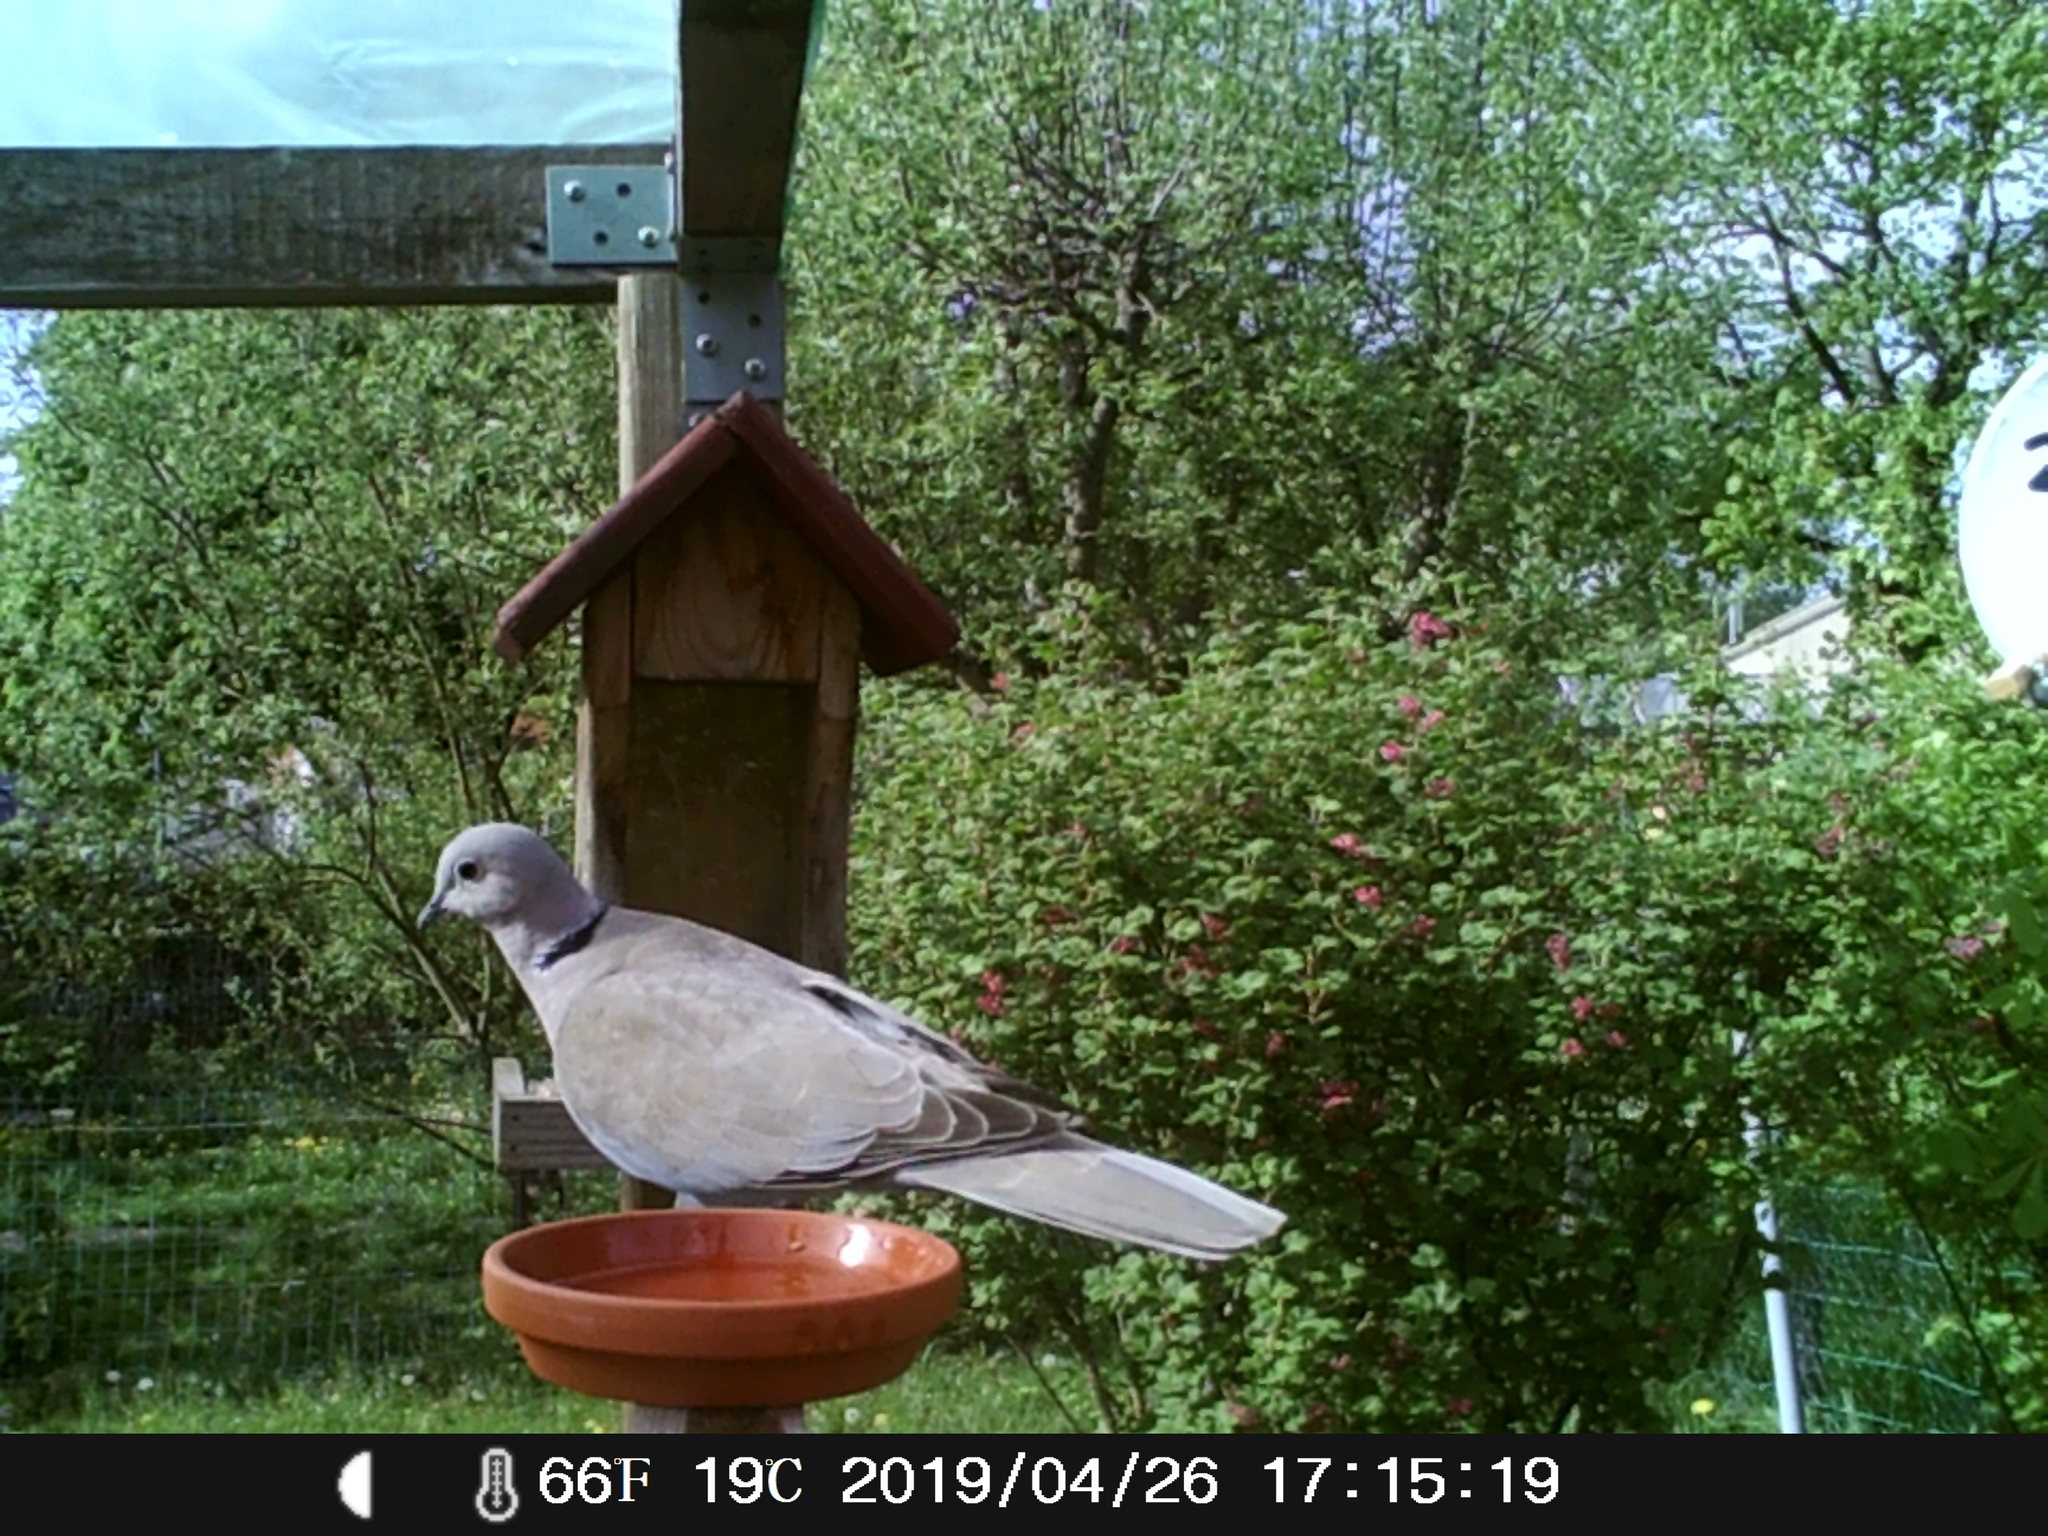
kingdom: Animalia
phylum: Chordata
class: Aves
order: Columbiformes
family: Columbidae
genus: Streptopelia
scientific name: Streptopelia decaocto
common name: Eurasian collared dove
